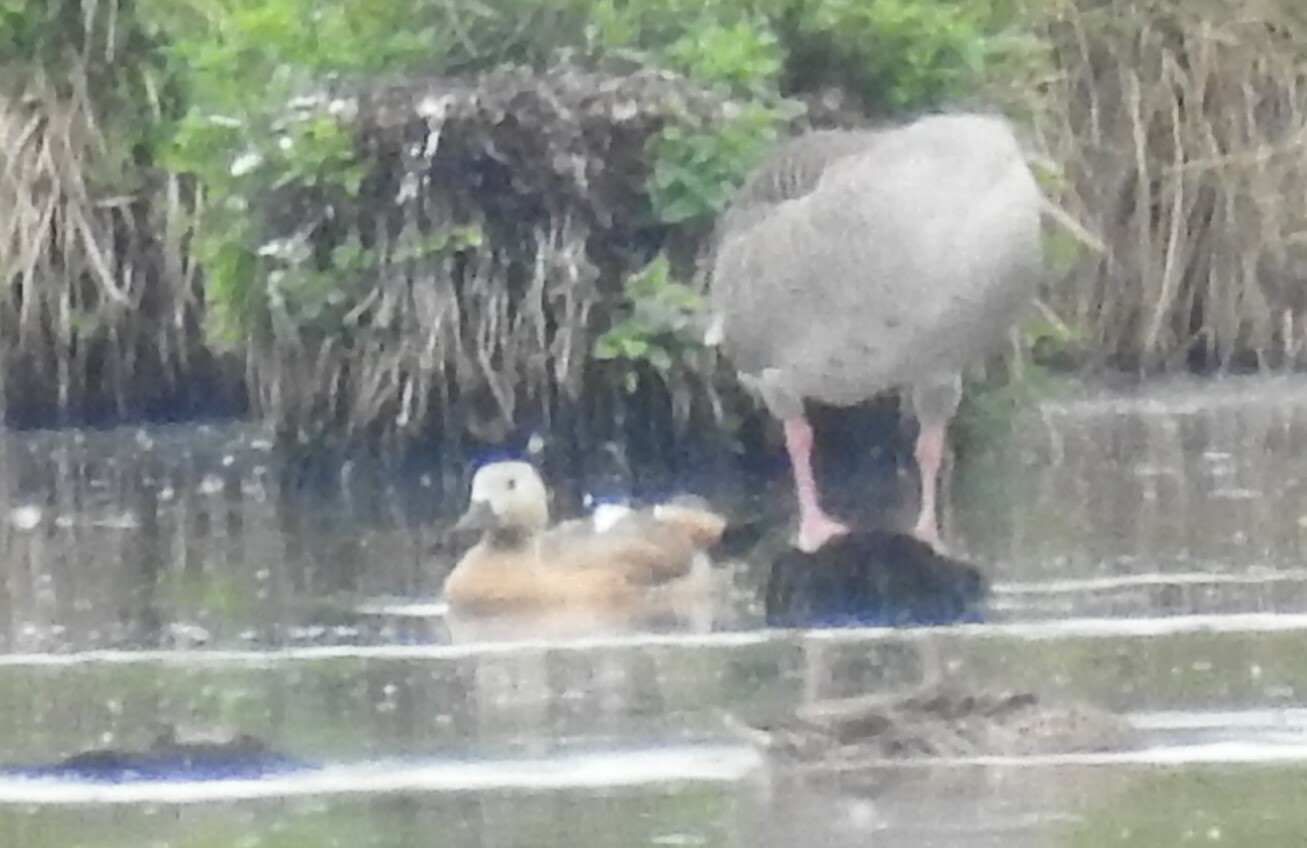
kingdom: Animalia
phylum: Chordata
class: Aves
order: Anseriformes
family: Anatidae
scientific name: Anatidae
